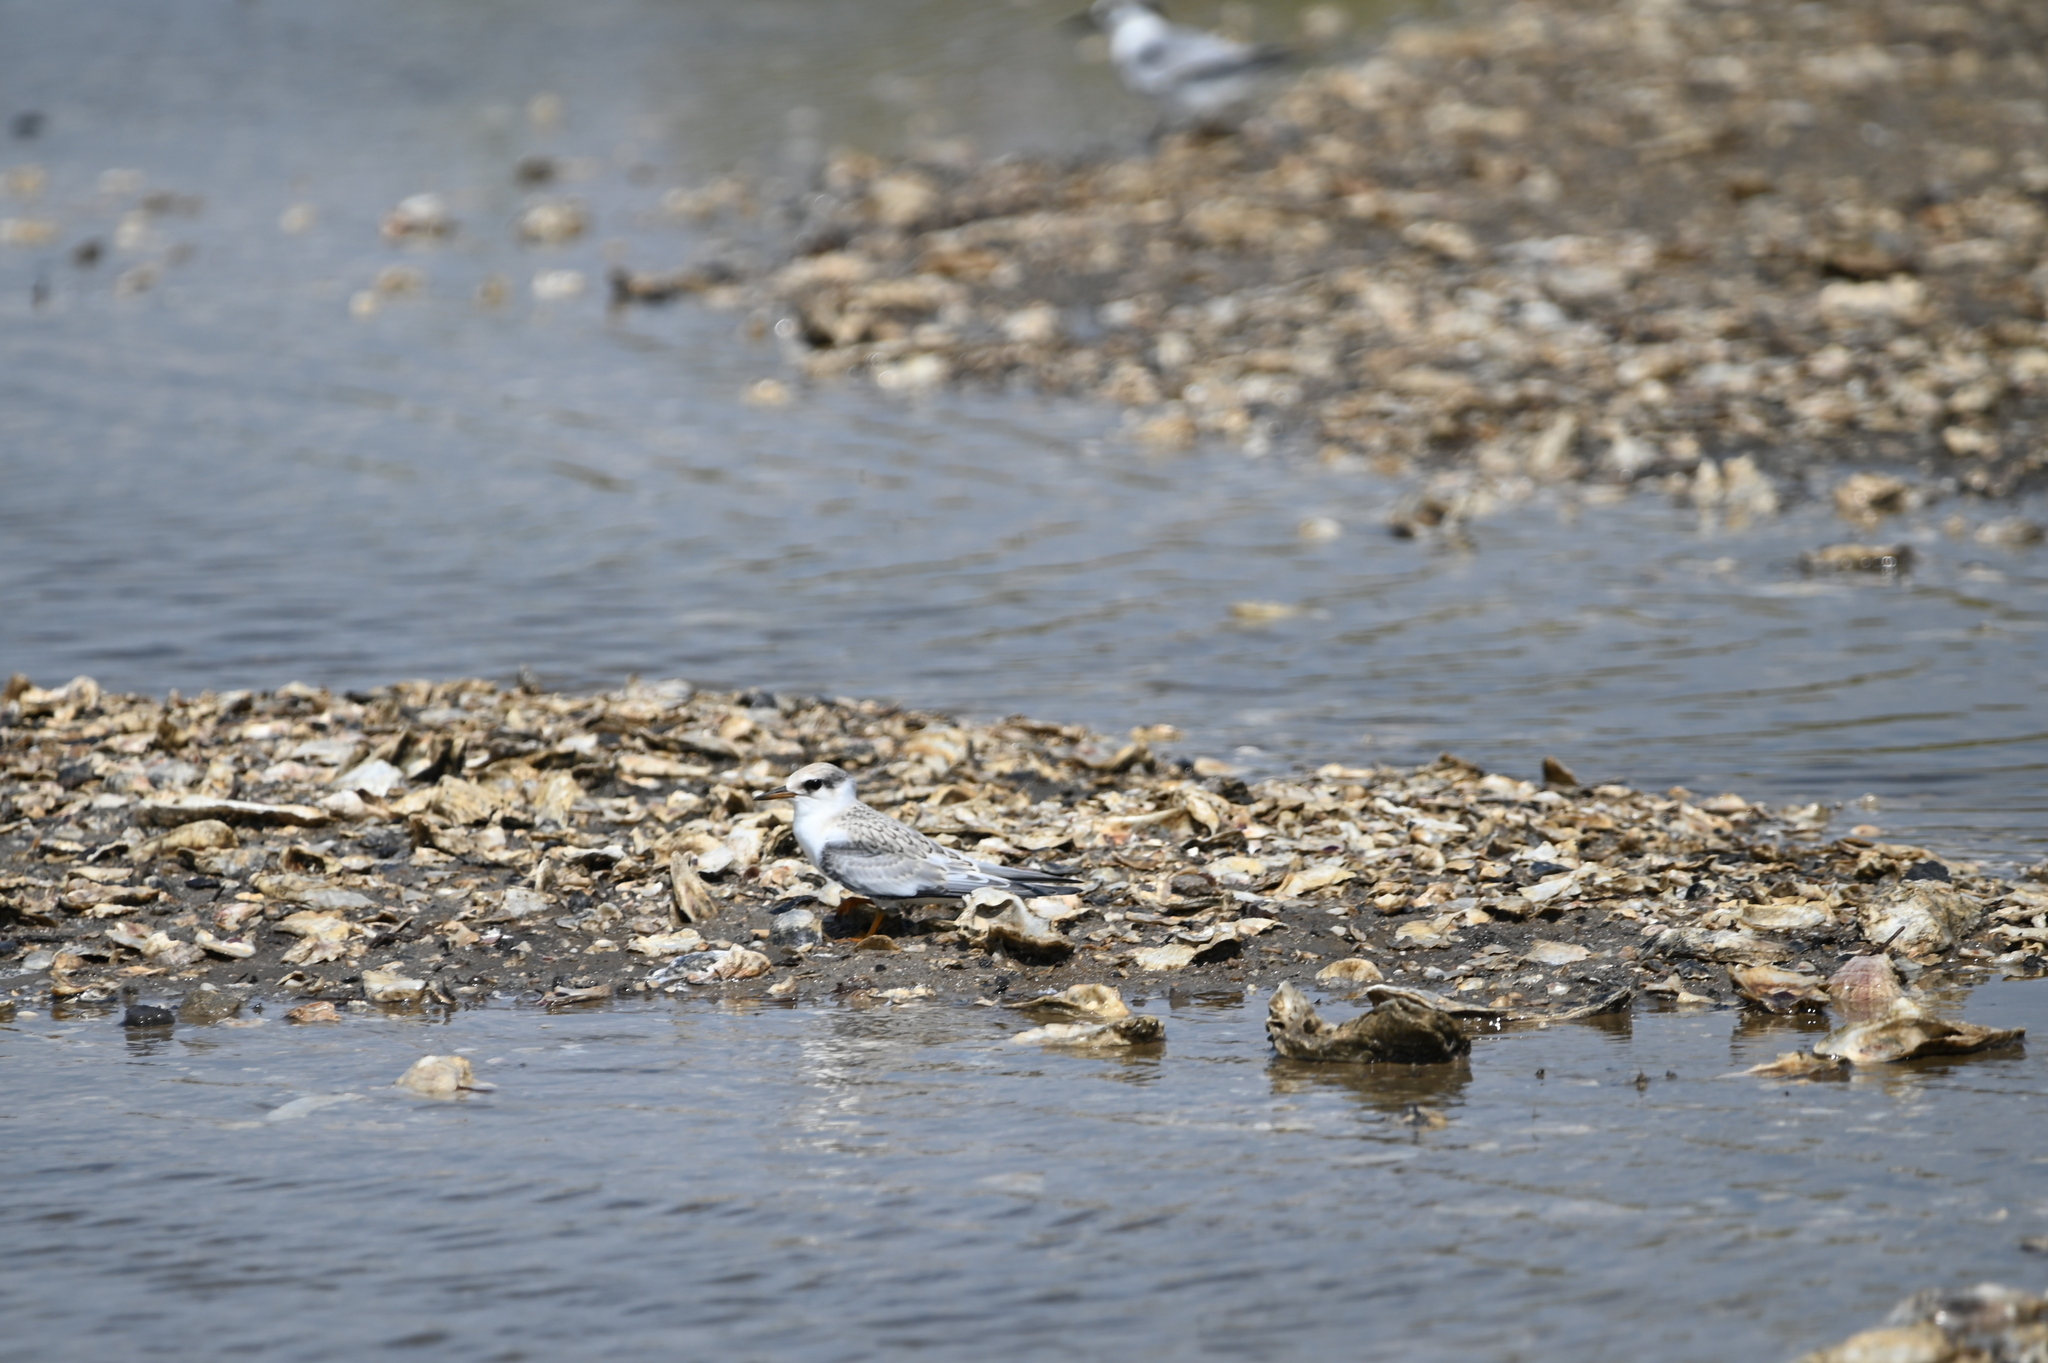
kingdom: Animalia
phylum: Chordata
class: Aves
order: Charadriiformes
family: Laridae
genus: Sternula
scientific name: Sternula antillarum
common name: Least tern
